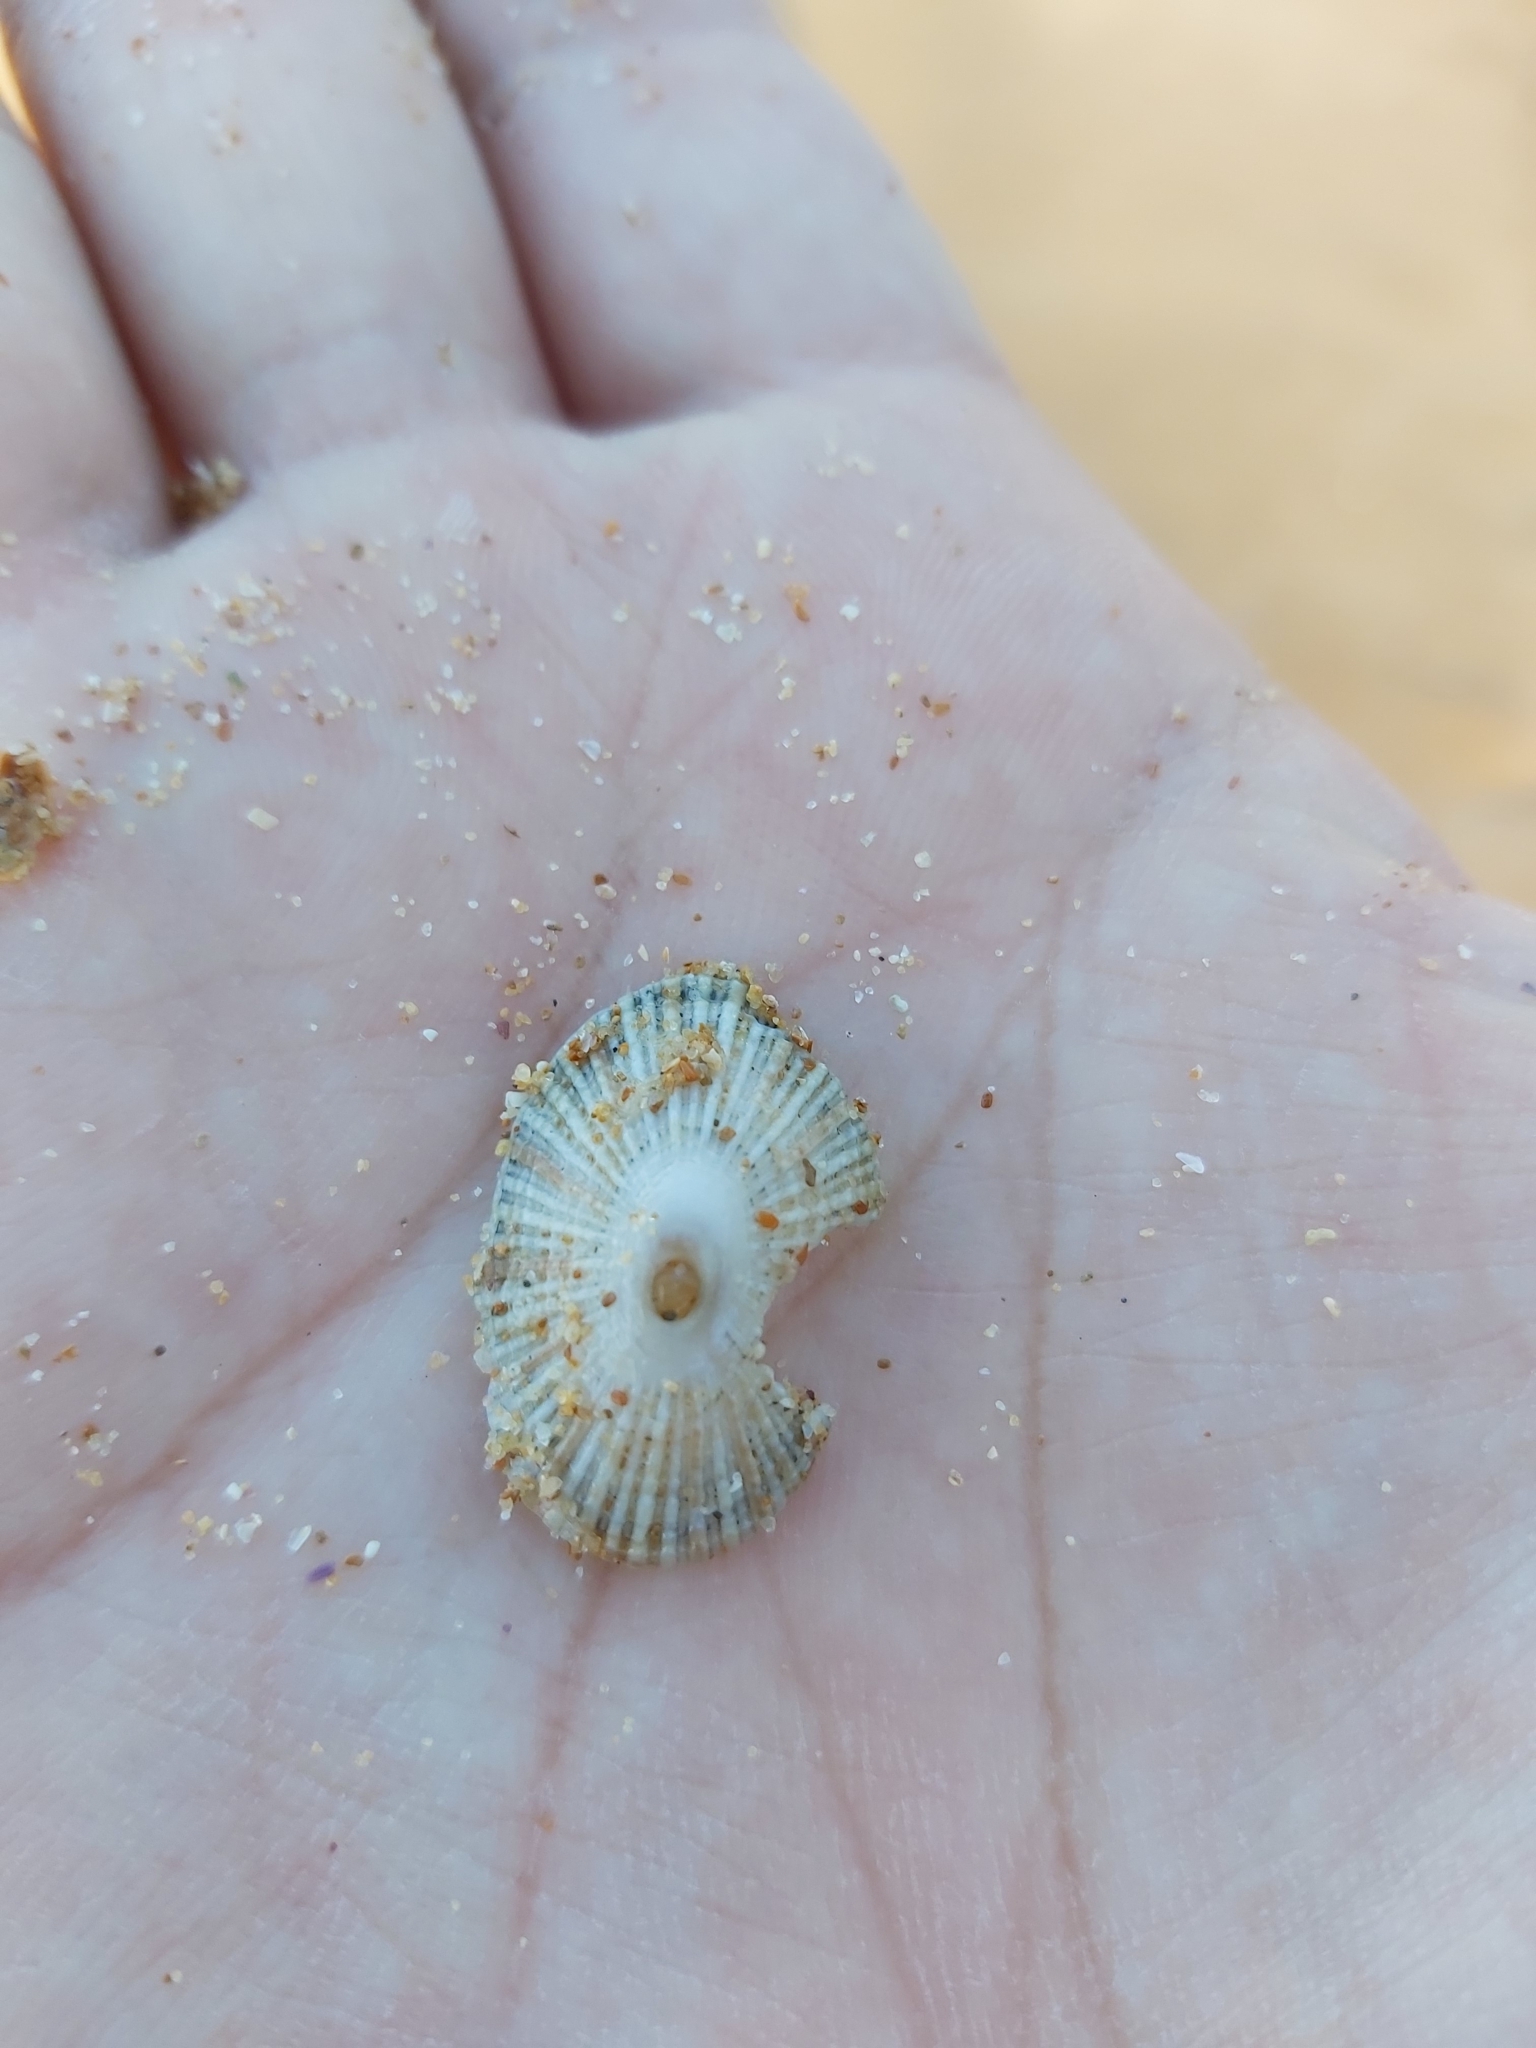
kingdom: Animalia
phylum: Mollusca
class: Gastropoda
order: Lepetellida
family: Fissurellidae
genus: Diodora
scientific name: Diodora lineata
